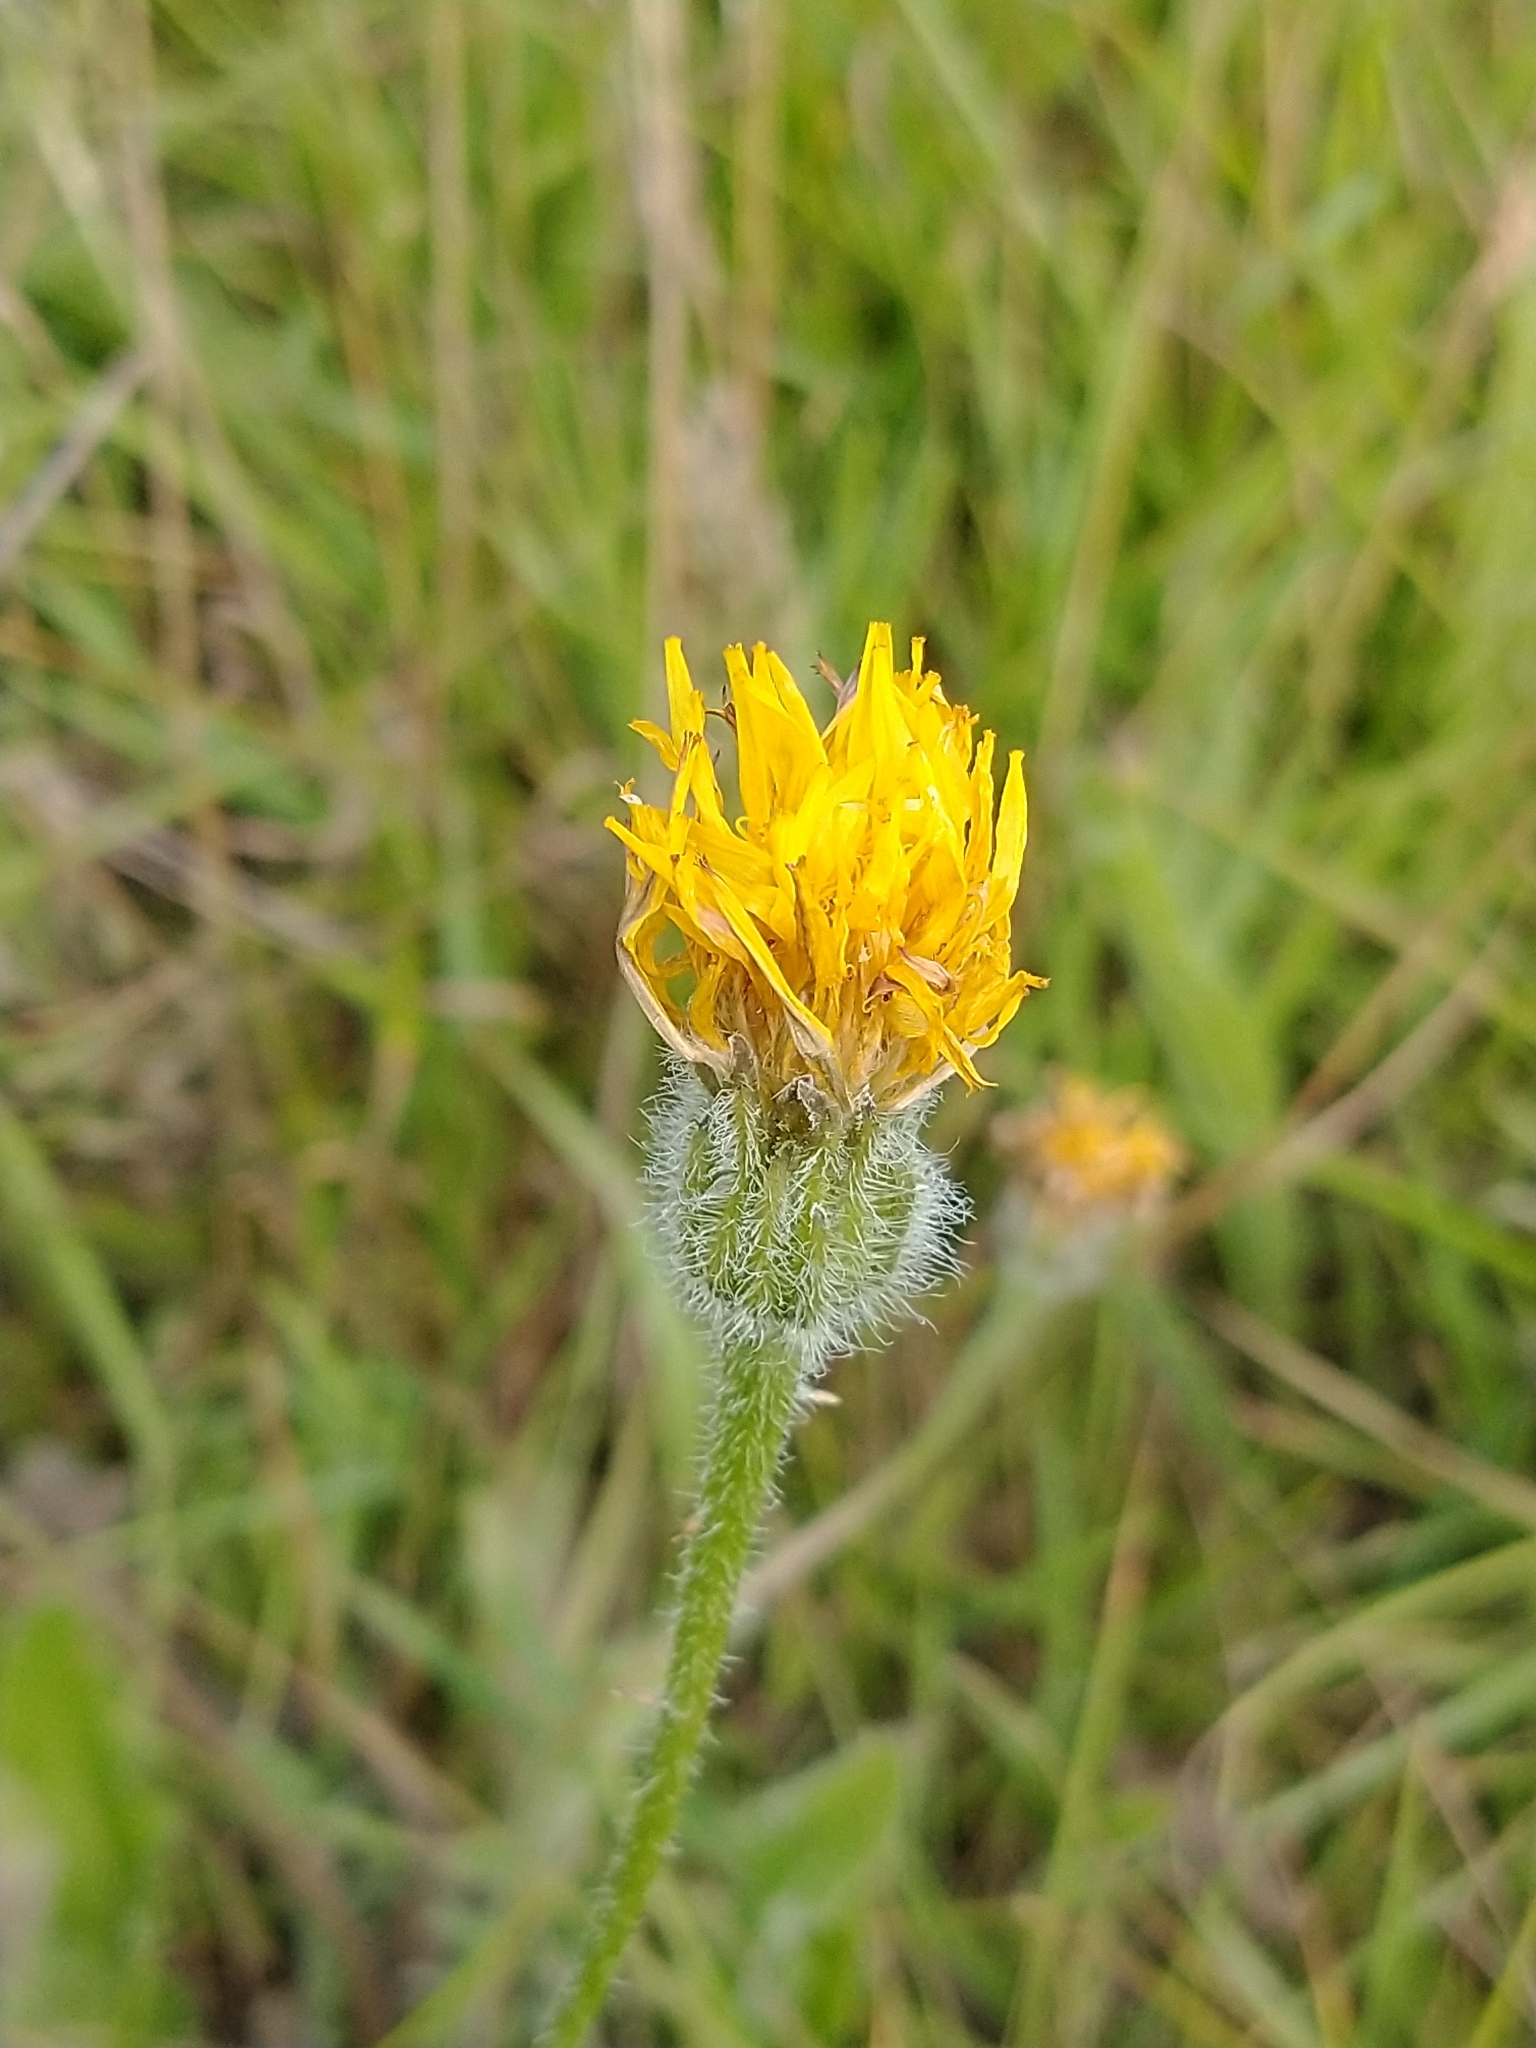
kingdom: Plantae
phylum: Tracheophyta
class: Magnoliopsida
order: Asterales
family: Asteraceae
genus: Leontodon
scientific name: Leontodon hispidus
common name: Rough hawkbit
